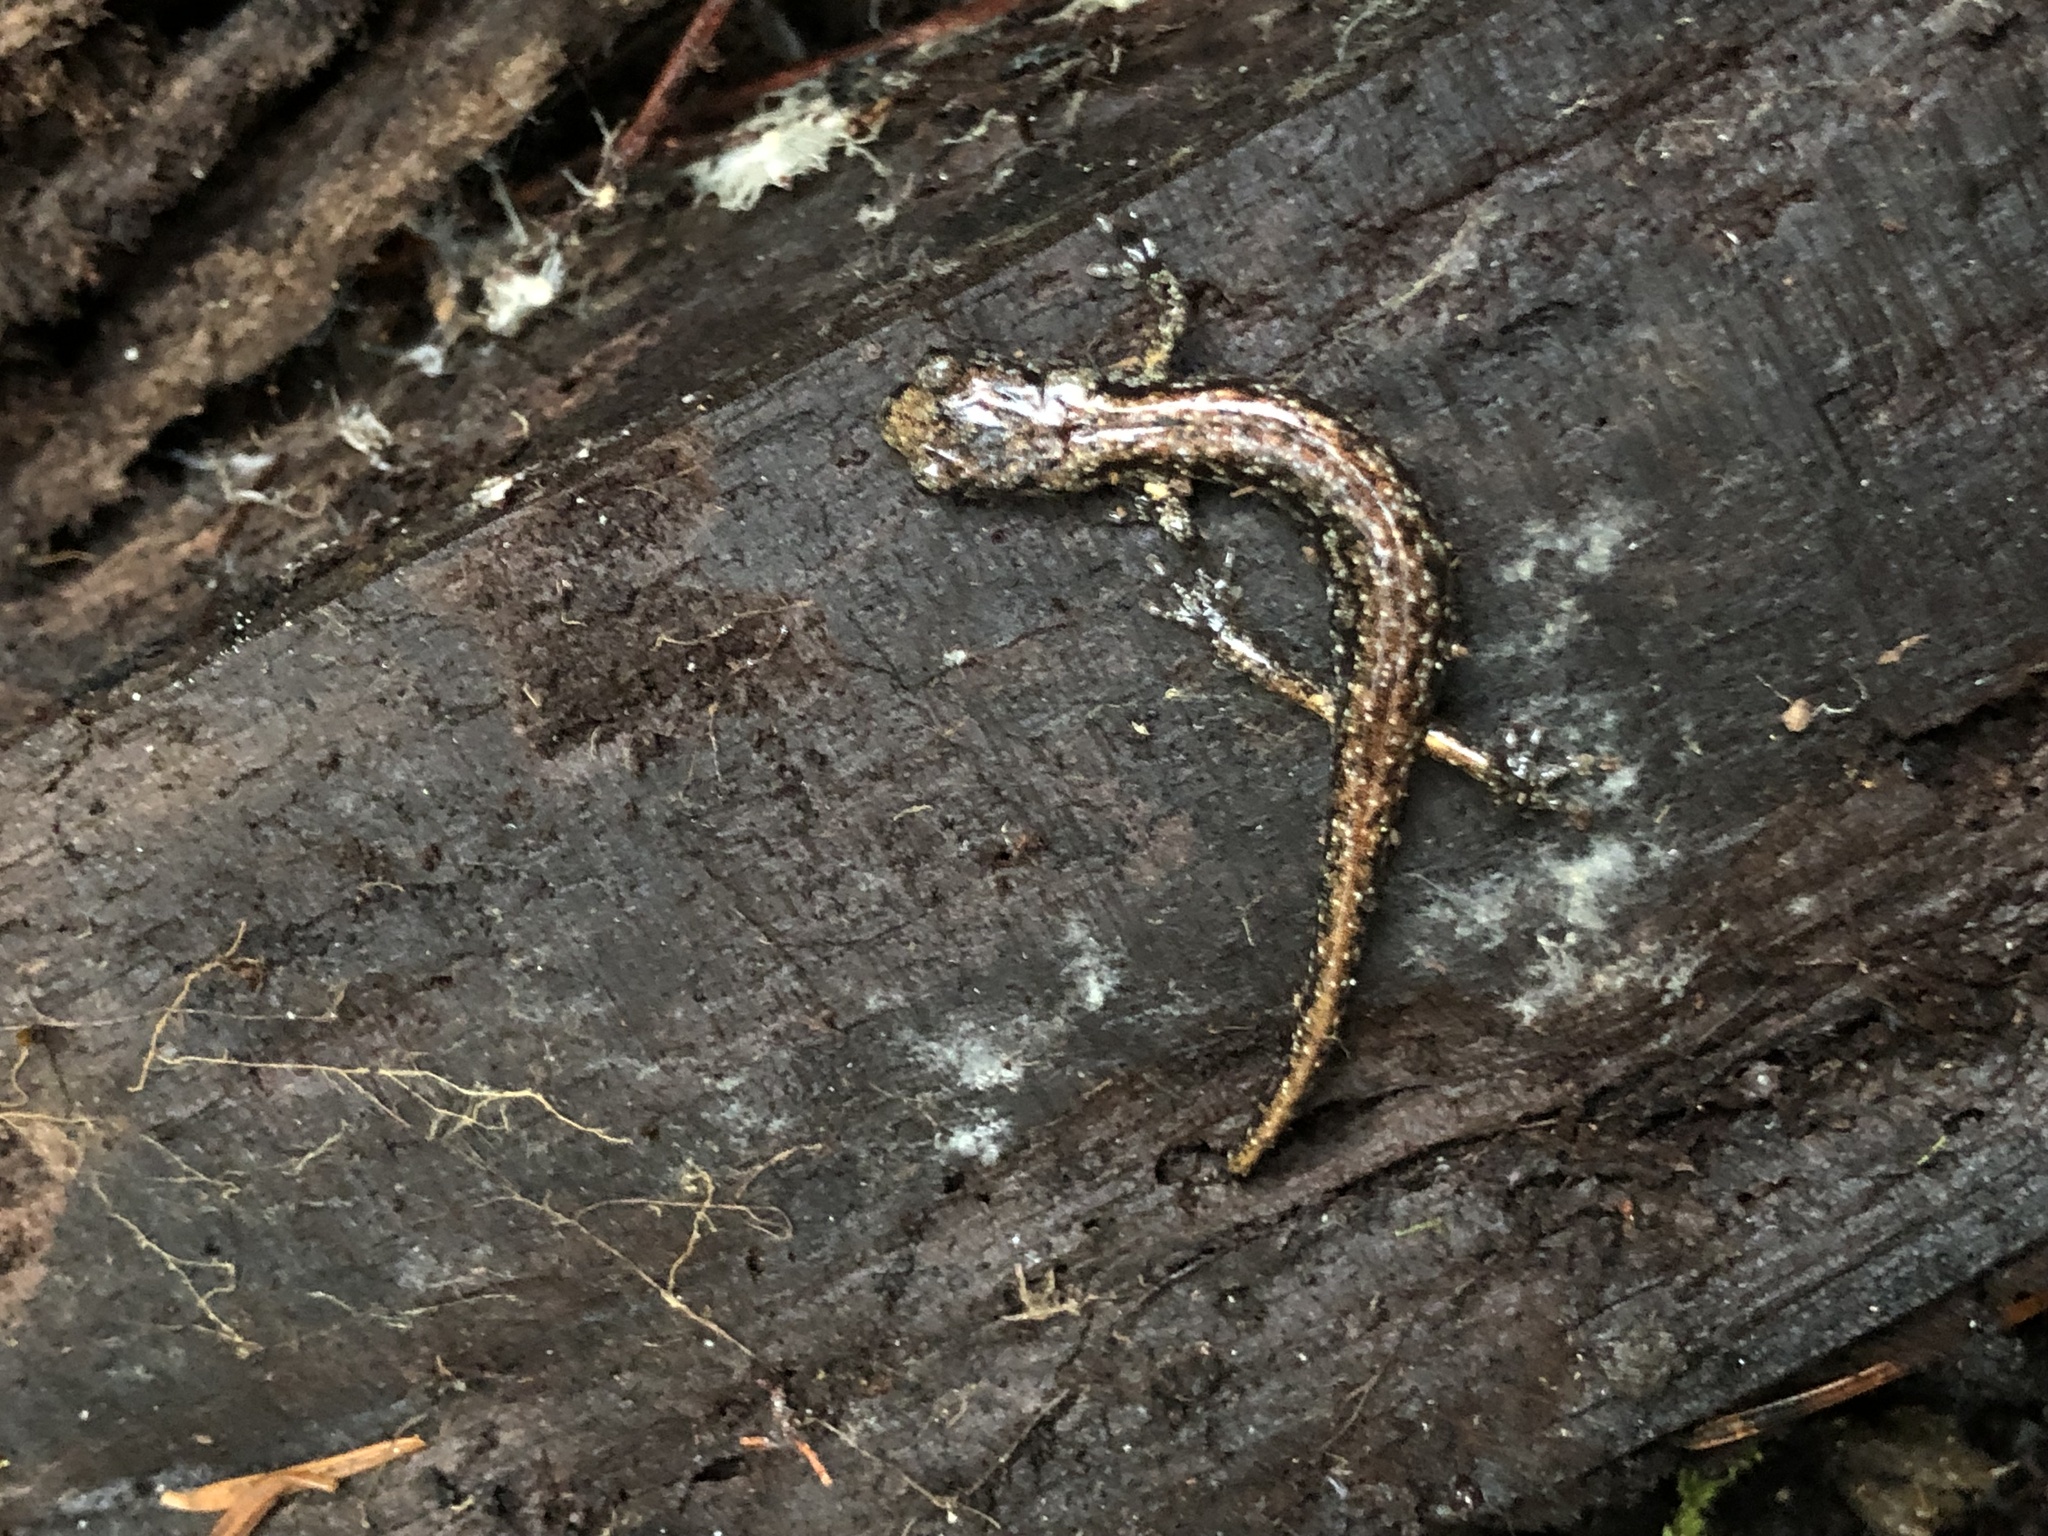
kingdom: Animalia
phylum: Chordata
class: Amphibia
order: Caudata
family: Plethodontidae
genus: Aneides
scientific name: Aneides vagrans
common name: Wandering salamander
